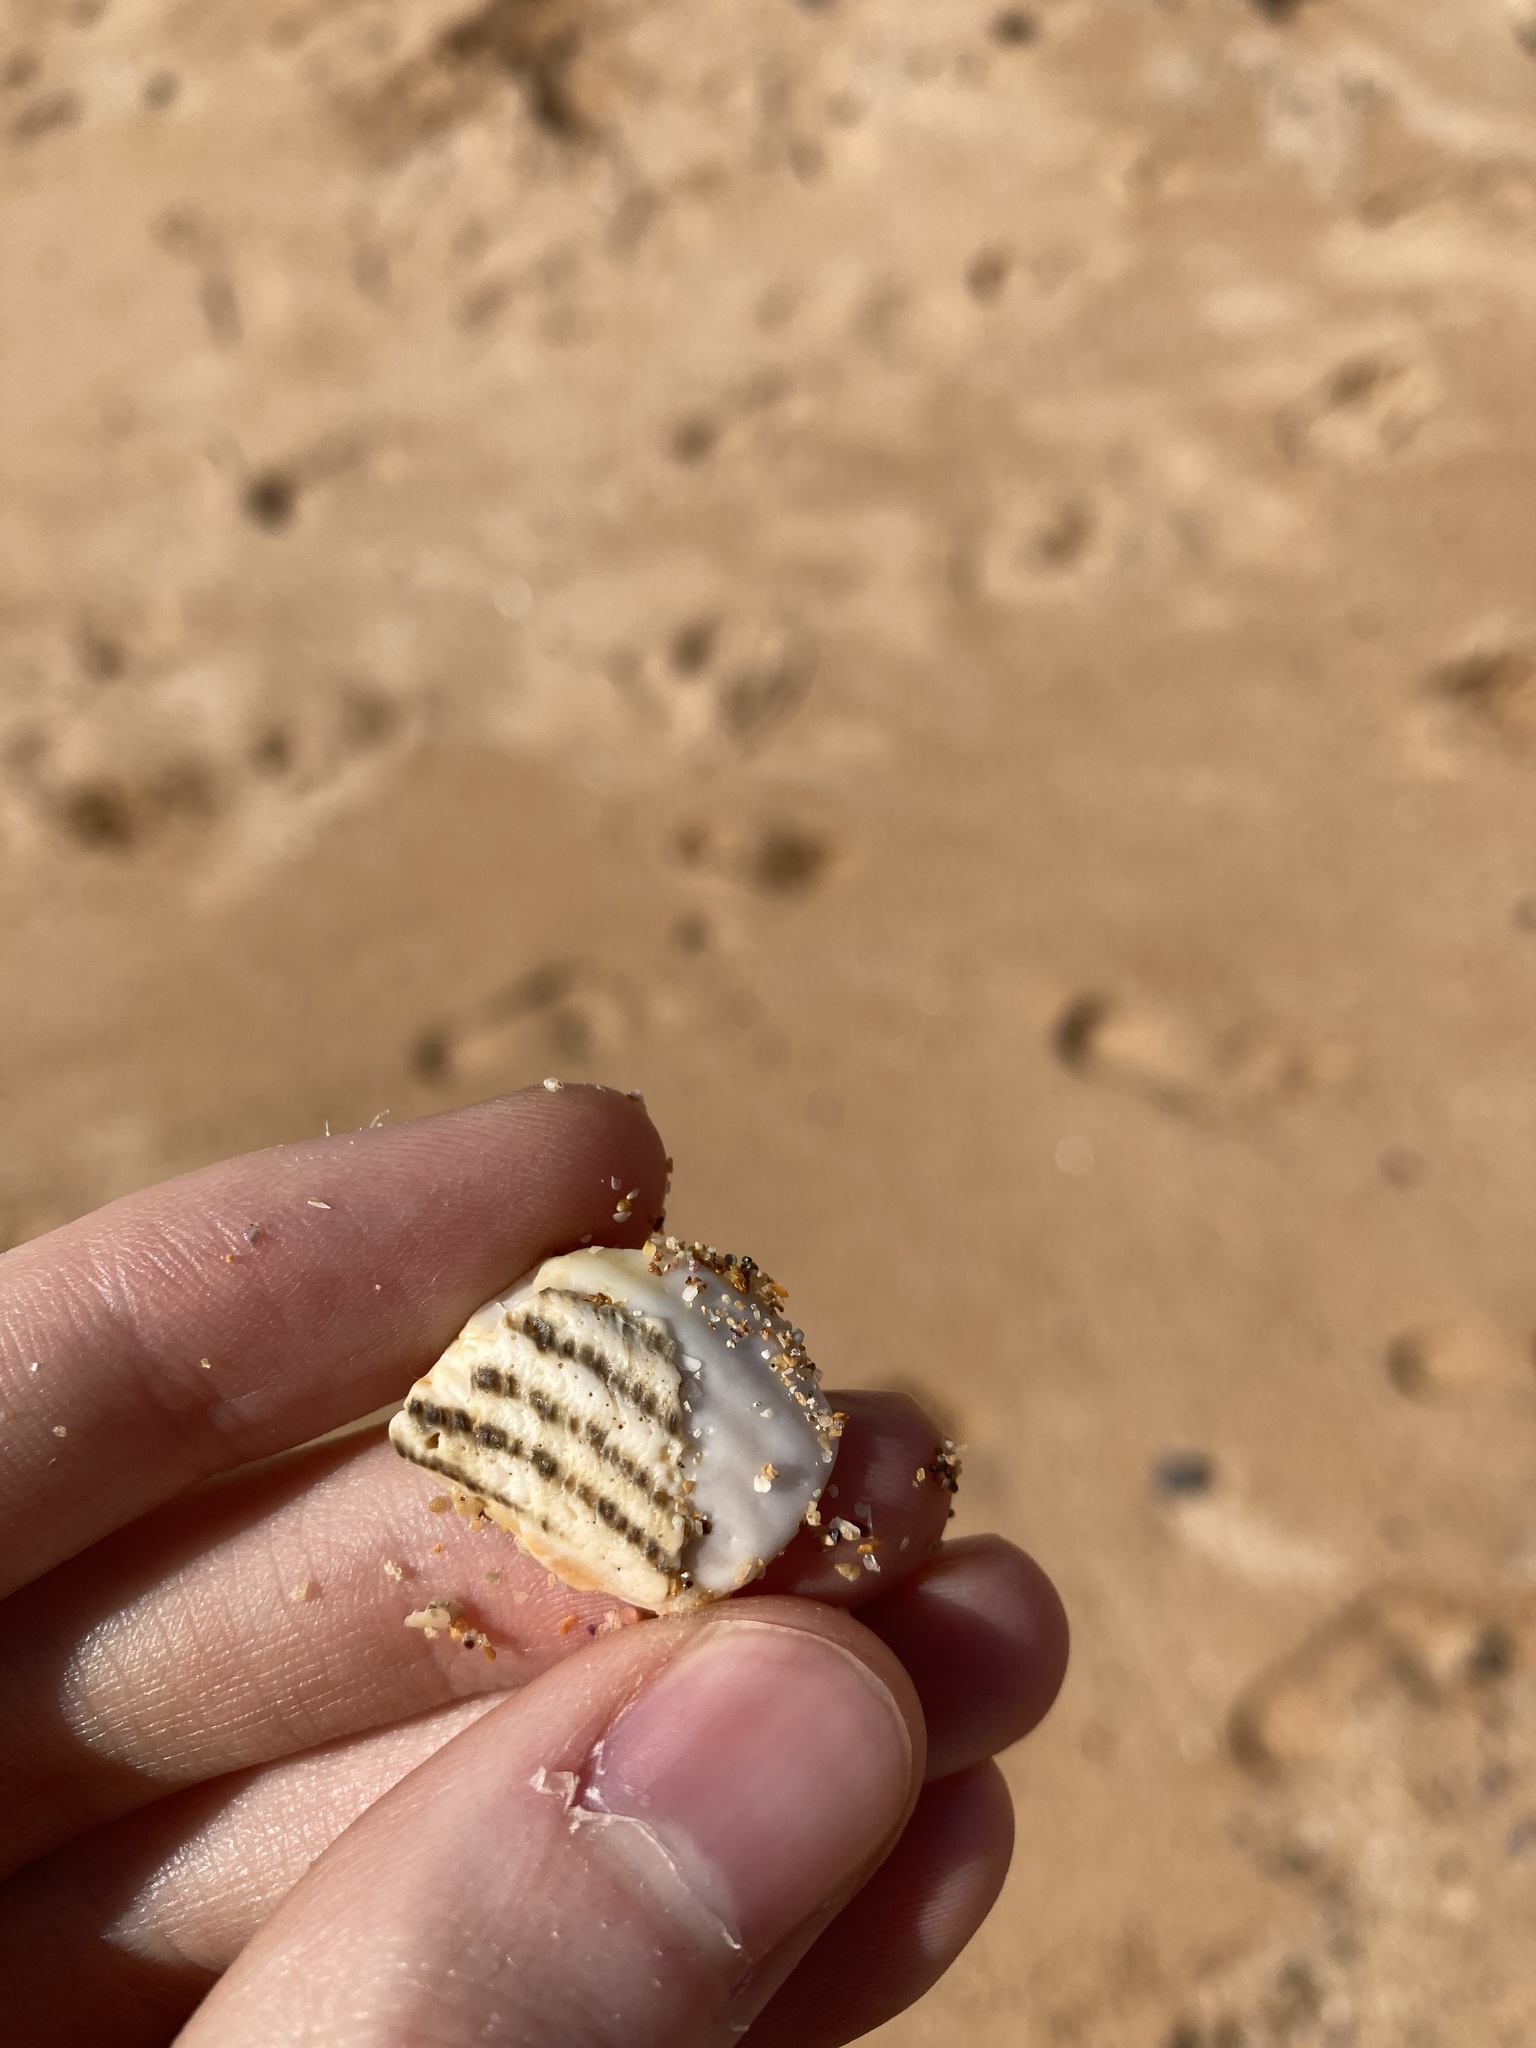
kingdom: Animalia
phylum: Mollusca
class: Gastropoda
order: Trochida
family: Turbinidae
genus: Lunella
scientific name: Lunella torquata
